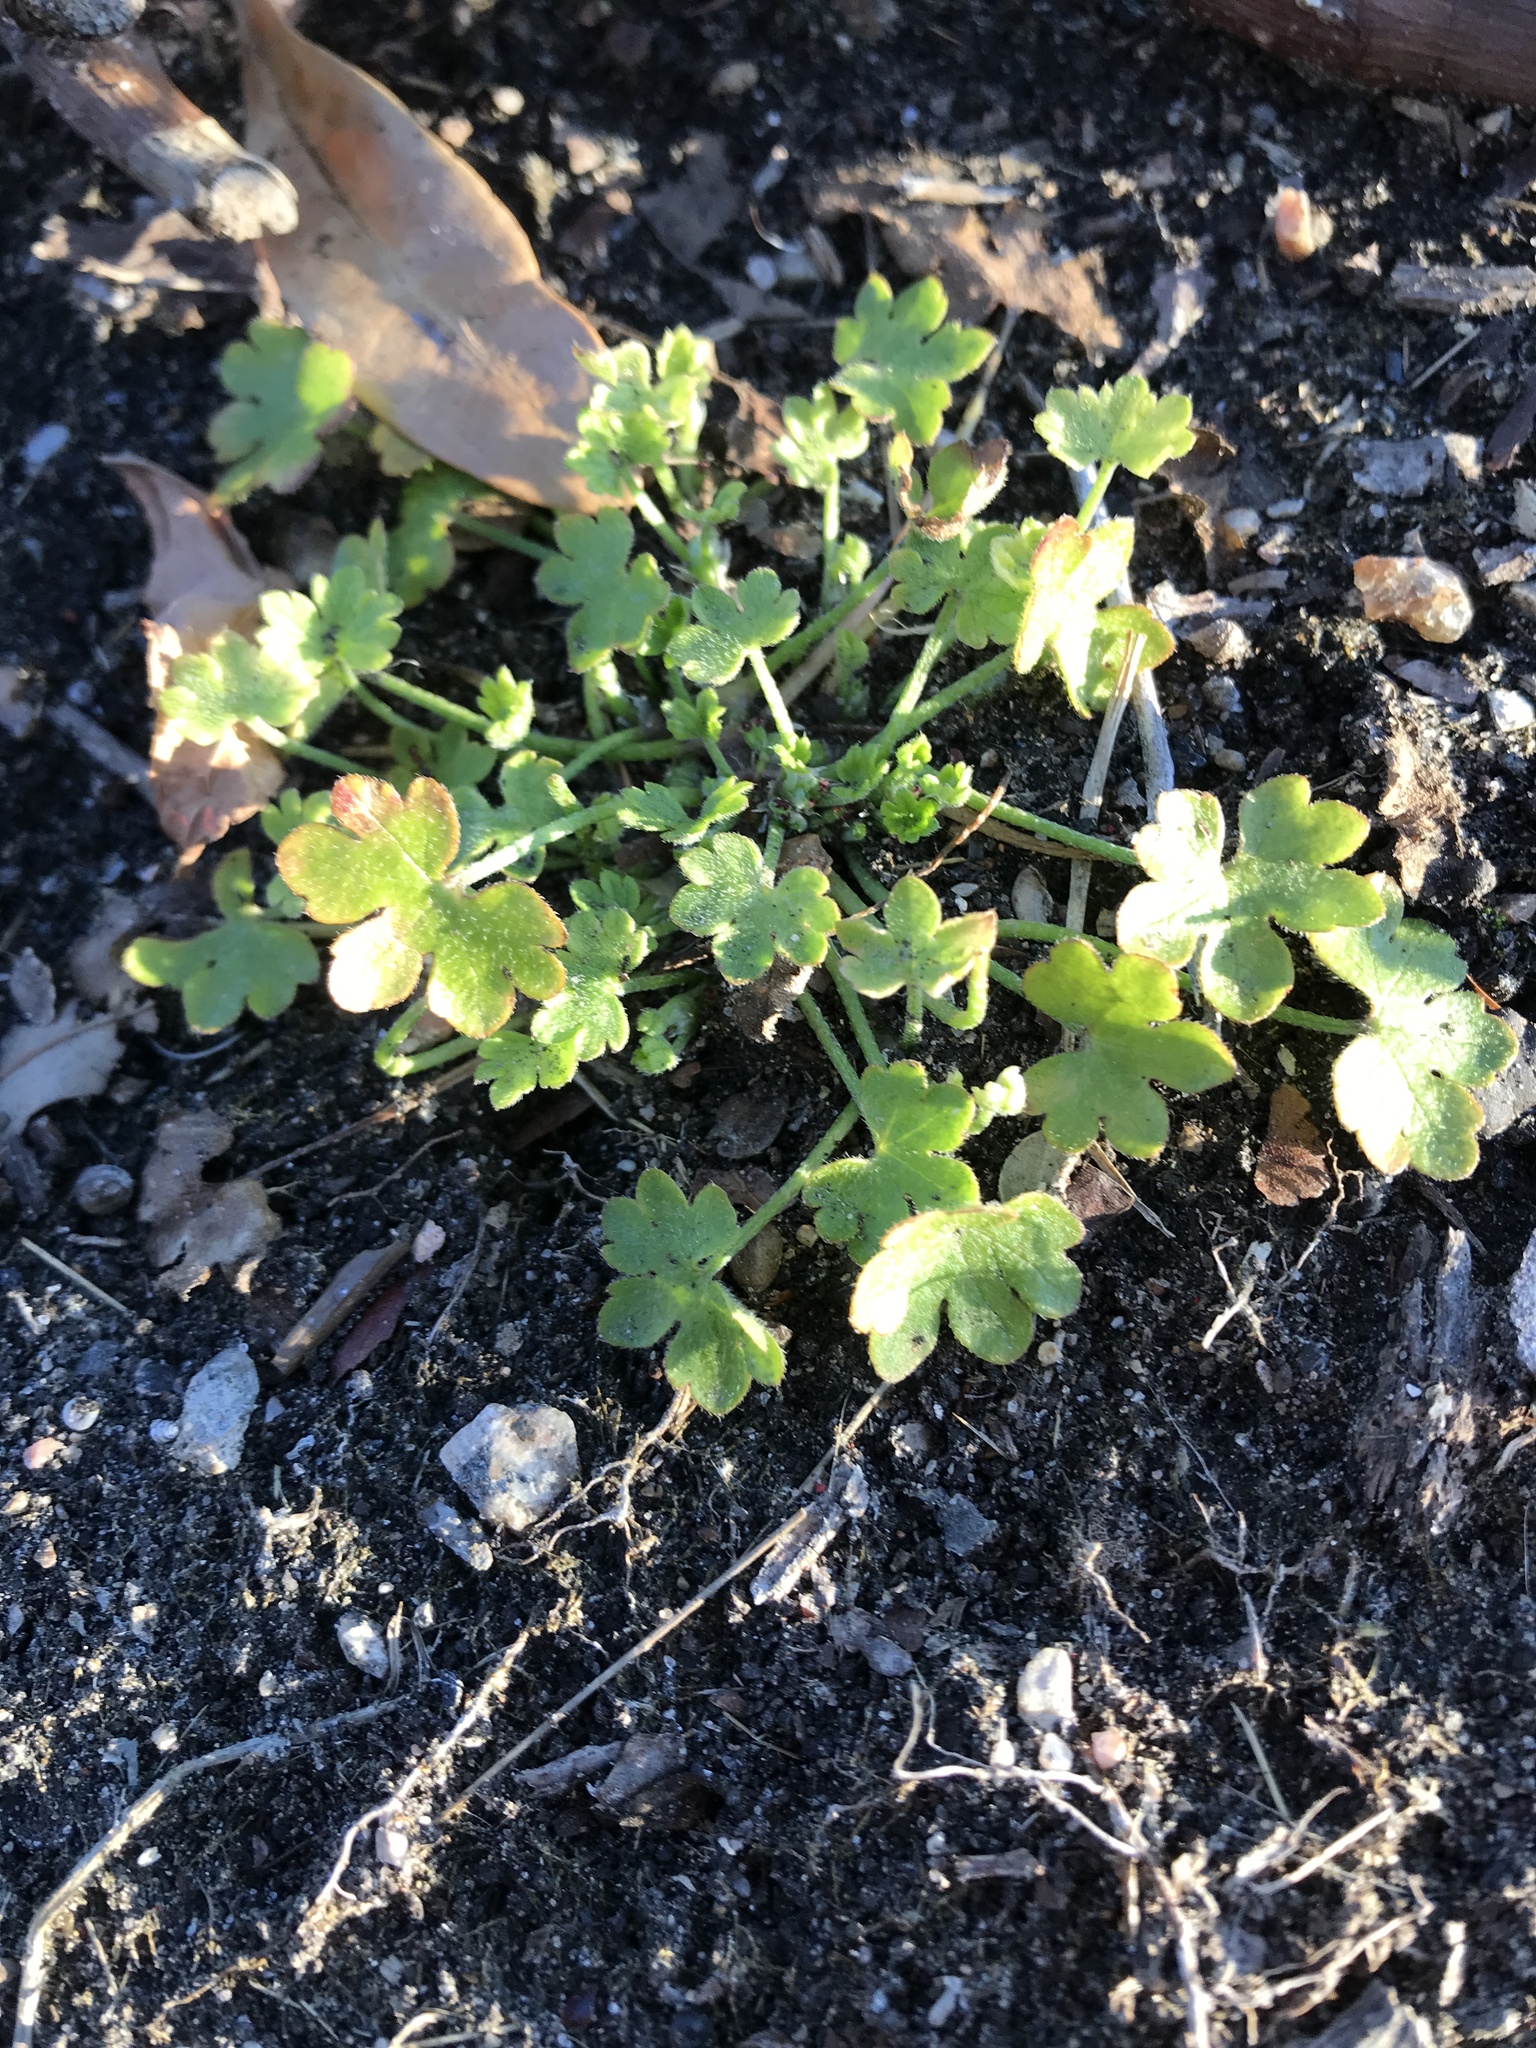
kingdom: Plantae
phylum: Tracheophyta
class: Magnoliopsida
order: Apiales
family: Apiaceae
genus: Bowlesia
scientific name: Bowlesia incana
